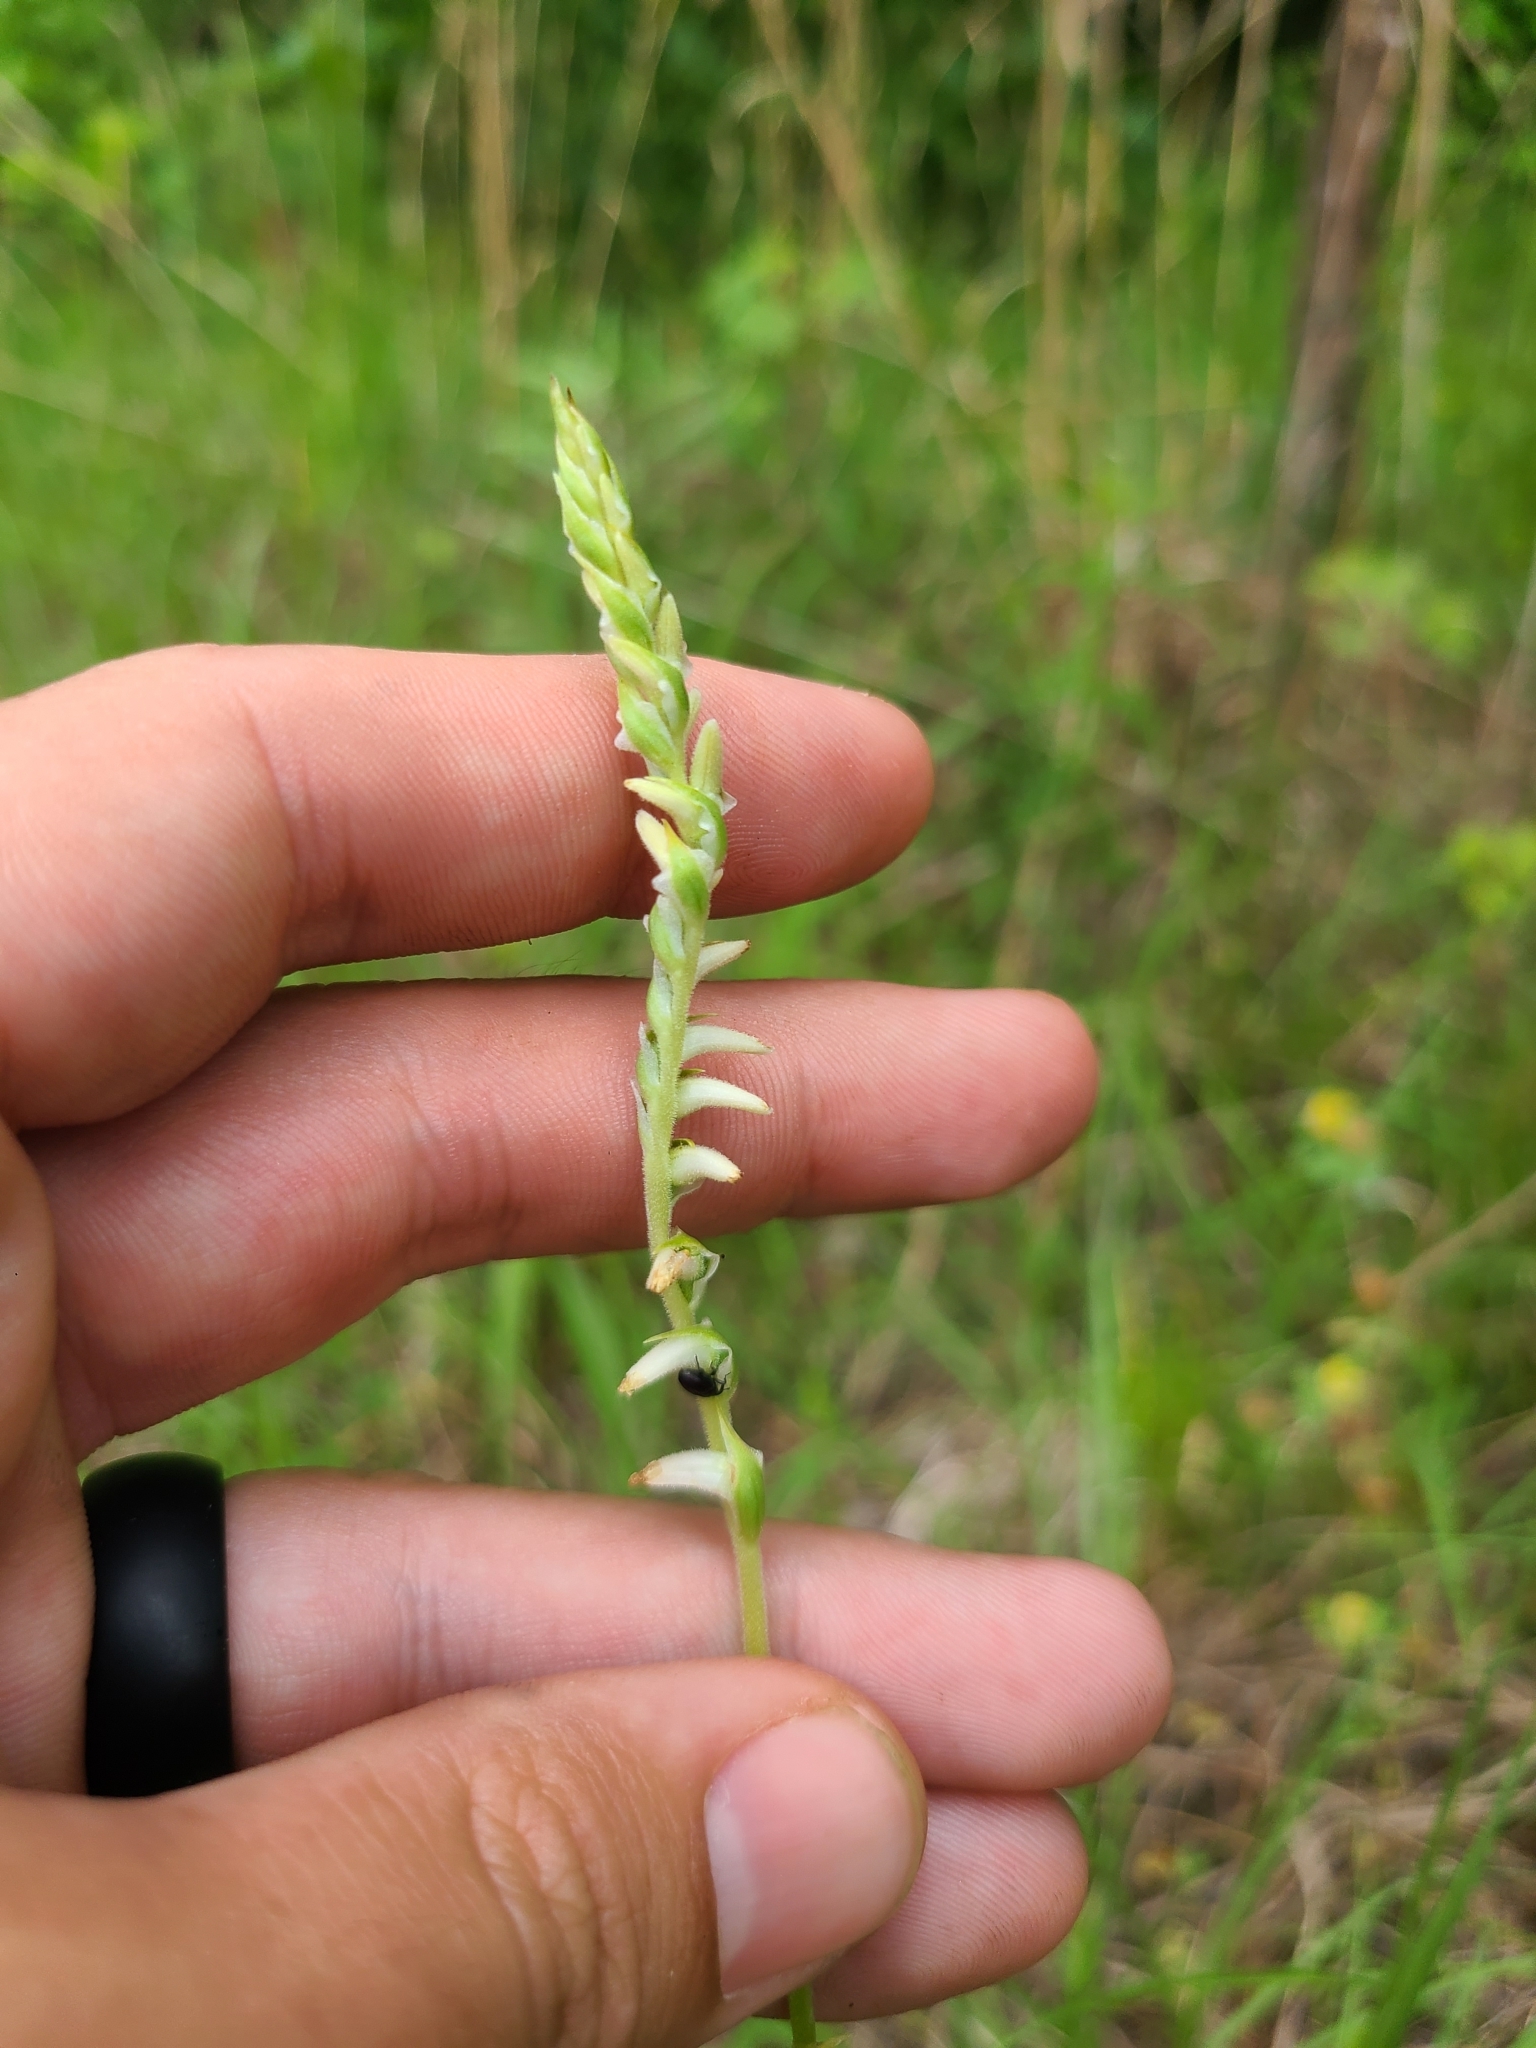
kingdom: Plantae
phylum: Tracheophyta
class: Liliopsida
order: Asparagales
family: Orchidaceae
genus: Spiranthes
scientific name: Spiranthes vernalis
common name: Spring ladies'-tresses
